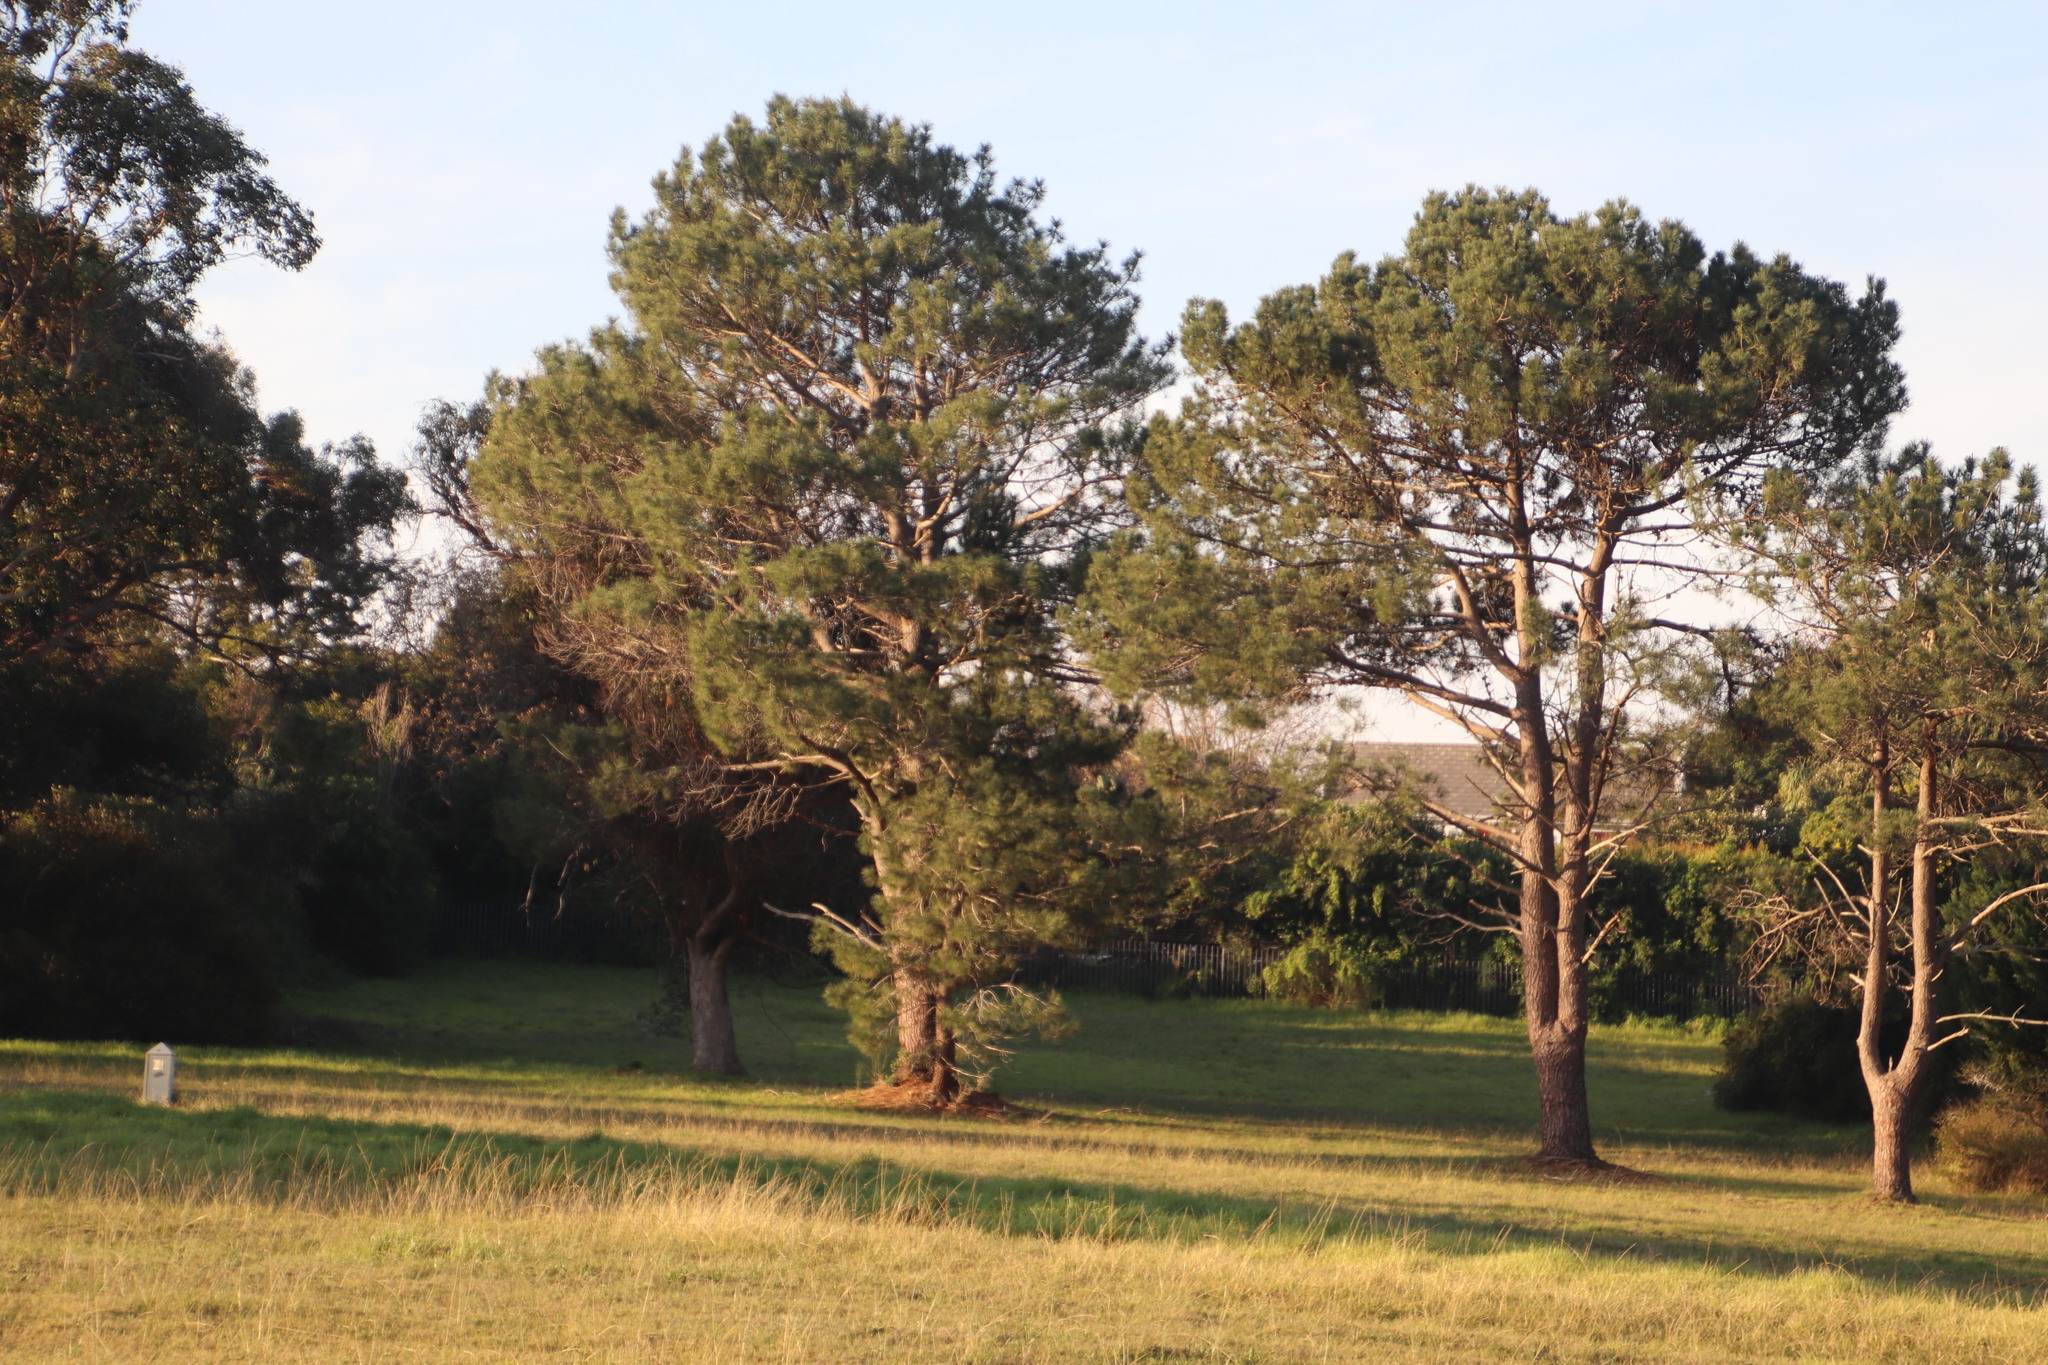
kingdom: Plantae
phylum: Tracheophyta
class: Pinopsida
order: Pinales
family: Pinaceae
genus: Pinus
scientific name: Pinus pinaster
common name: Maritime pine
